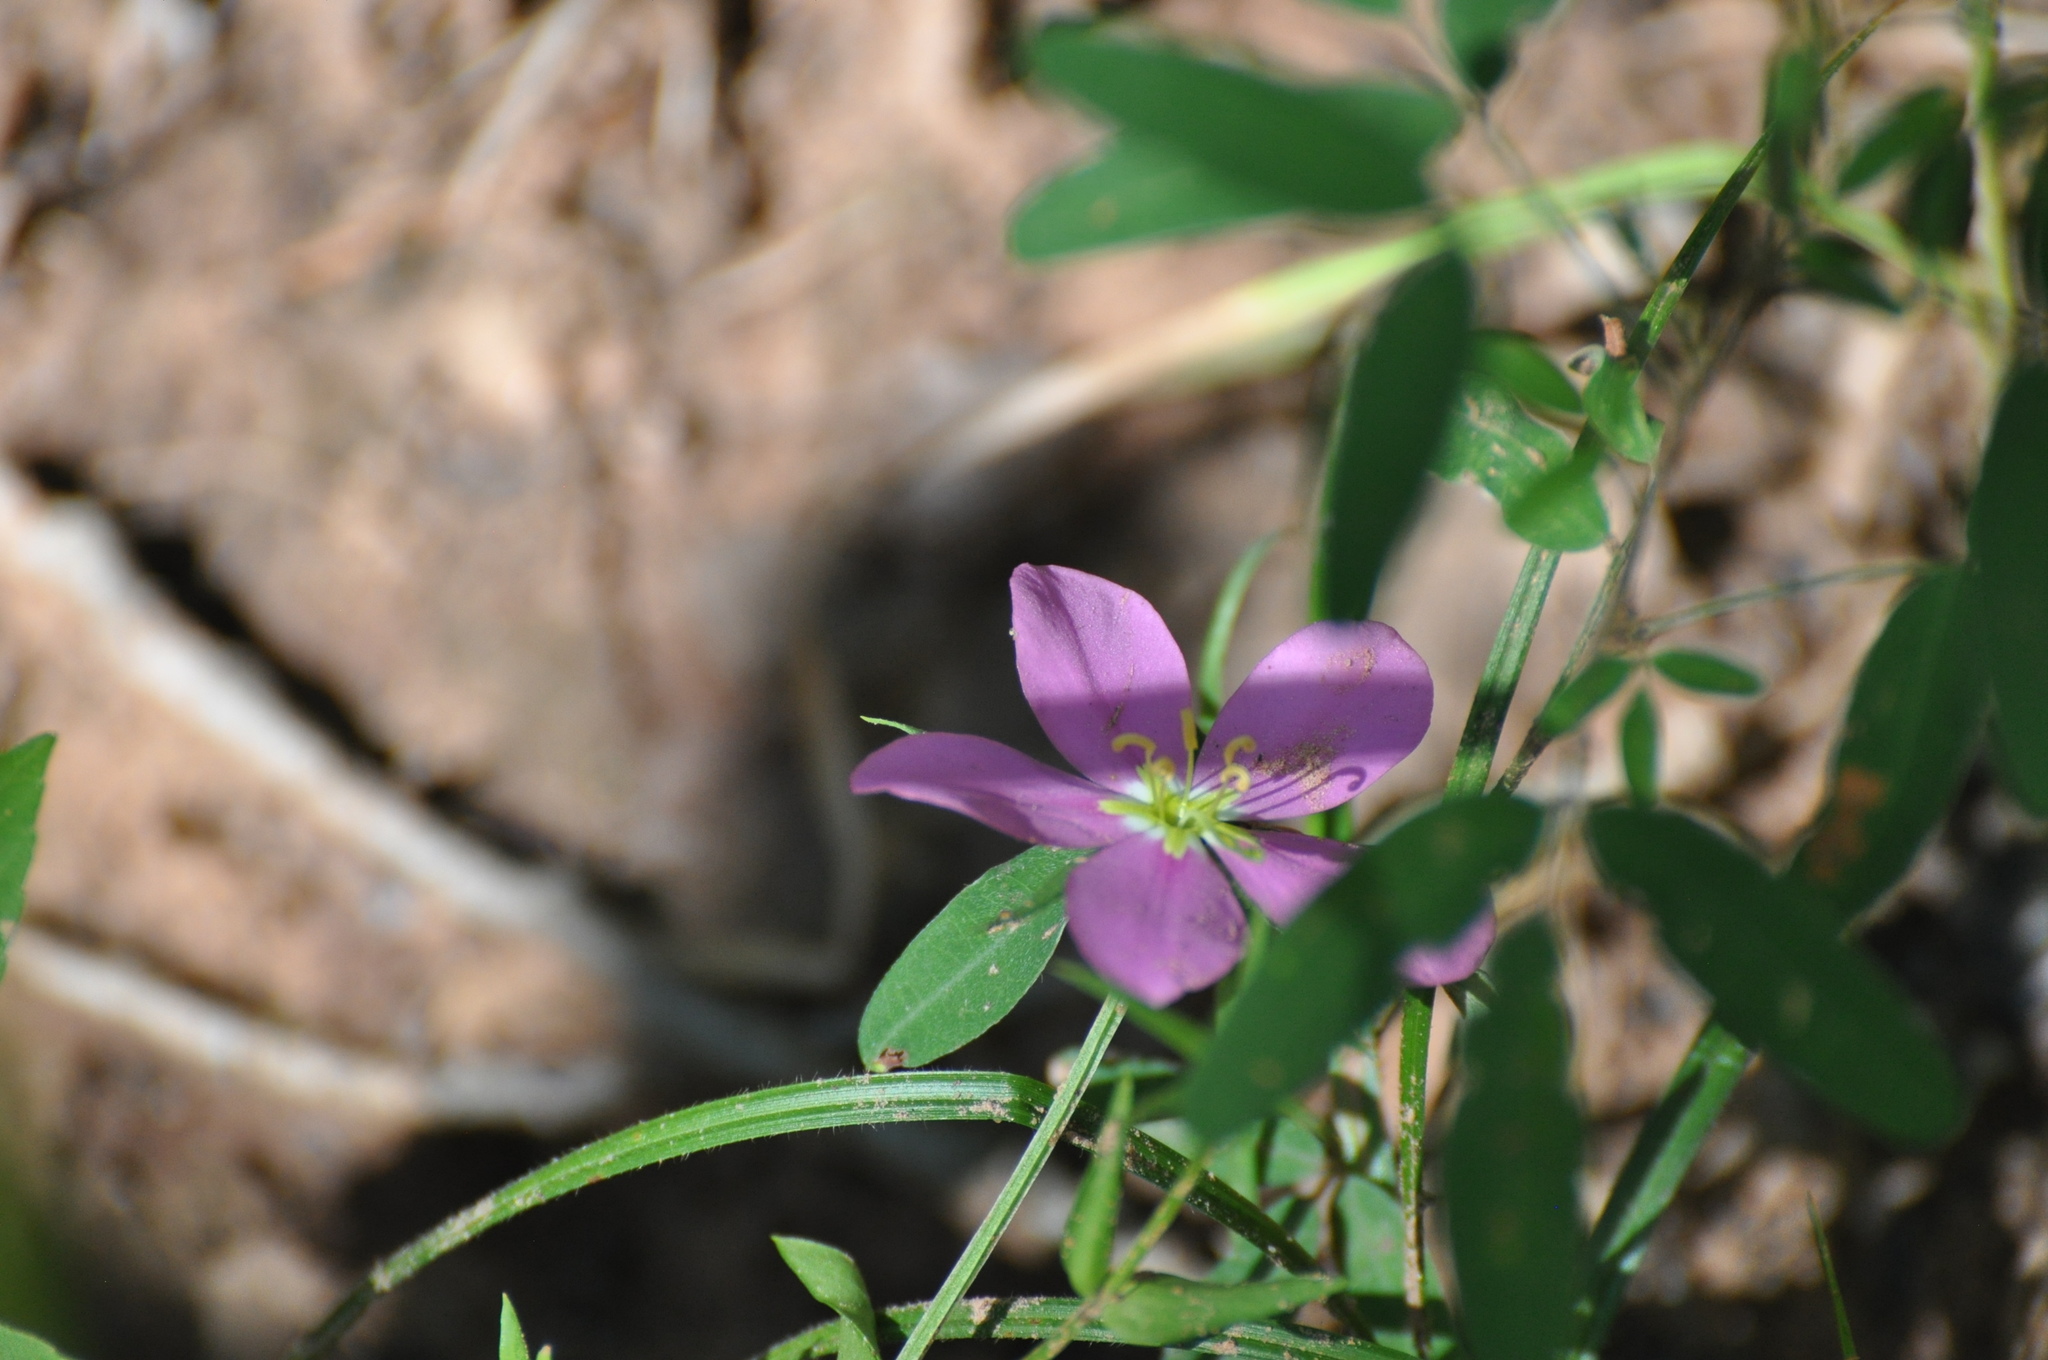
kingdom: Plantae
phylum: Tracheophyta
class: Magnoliopsida
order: Gentianales
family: Gentianaceae
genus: Sabatia
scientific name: Sabatia angularis
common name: Rose-pink
